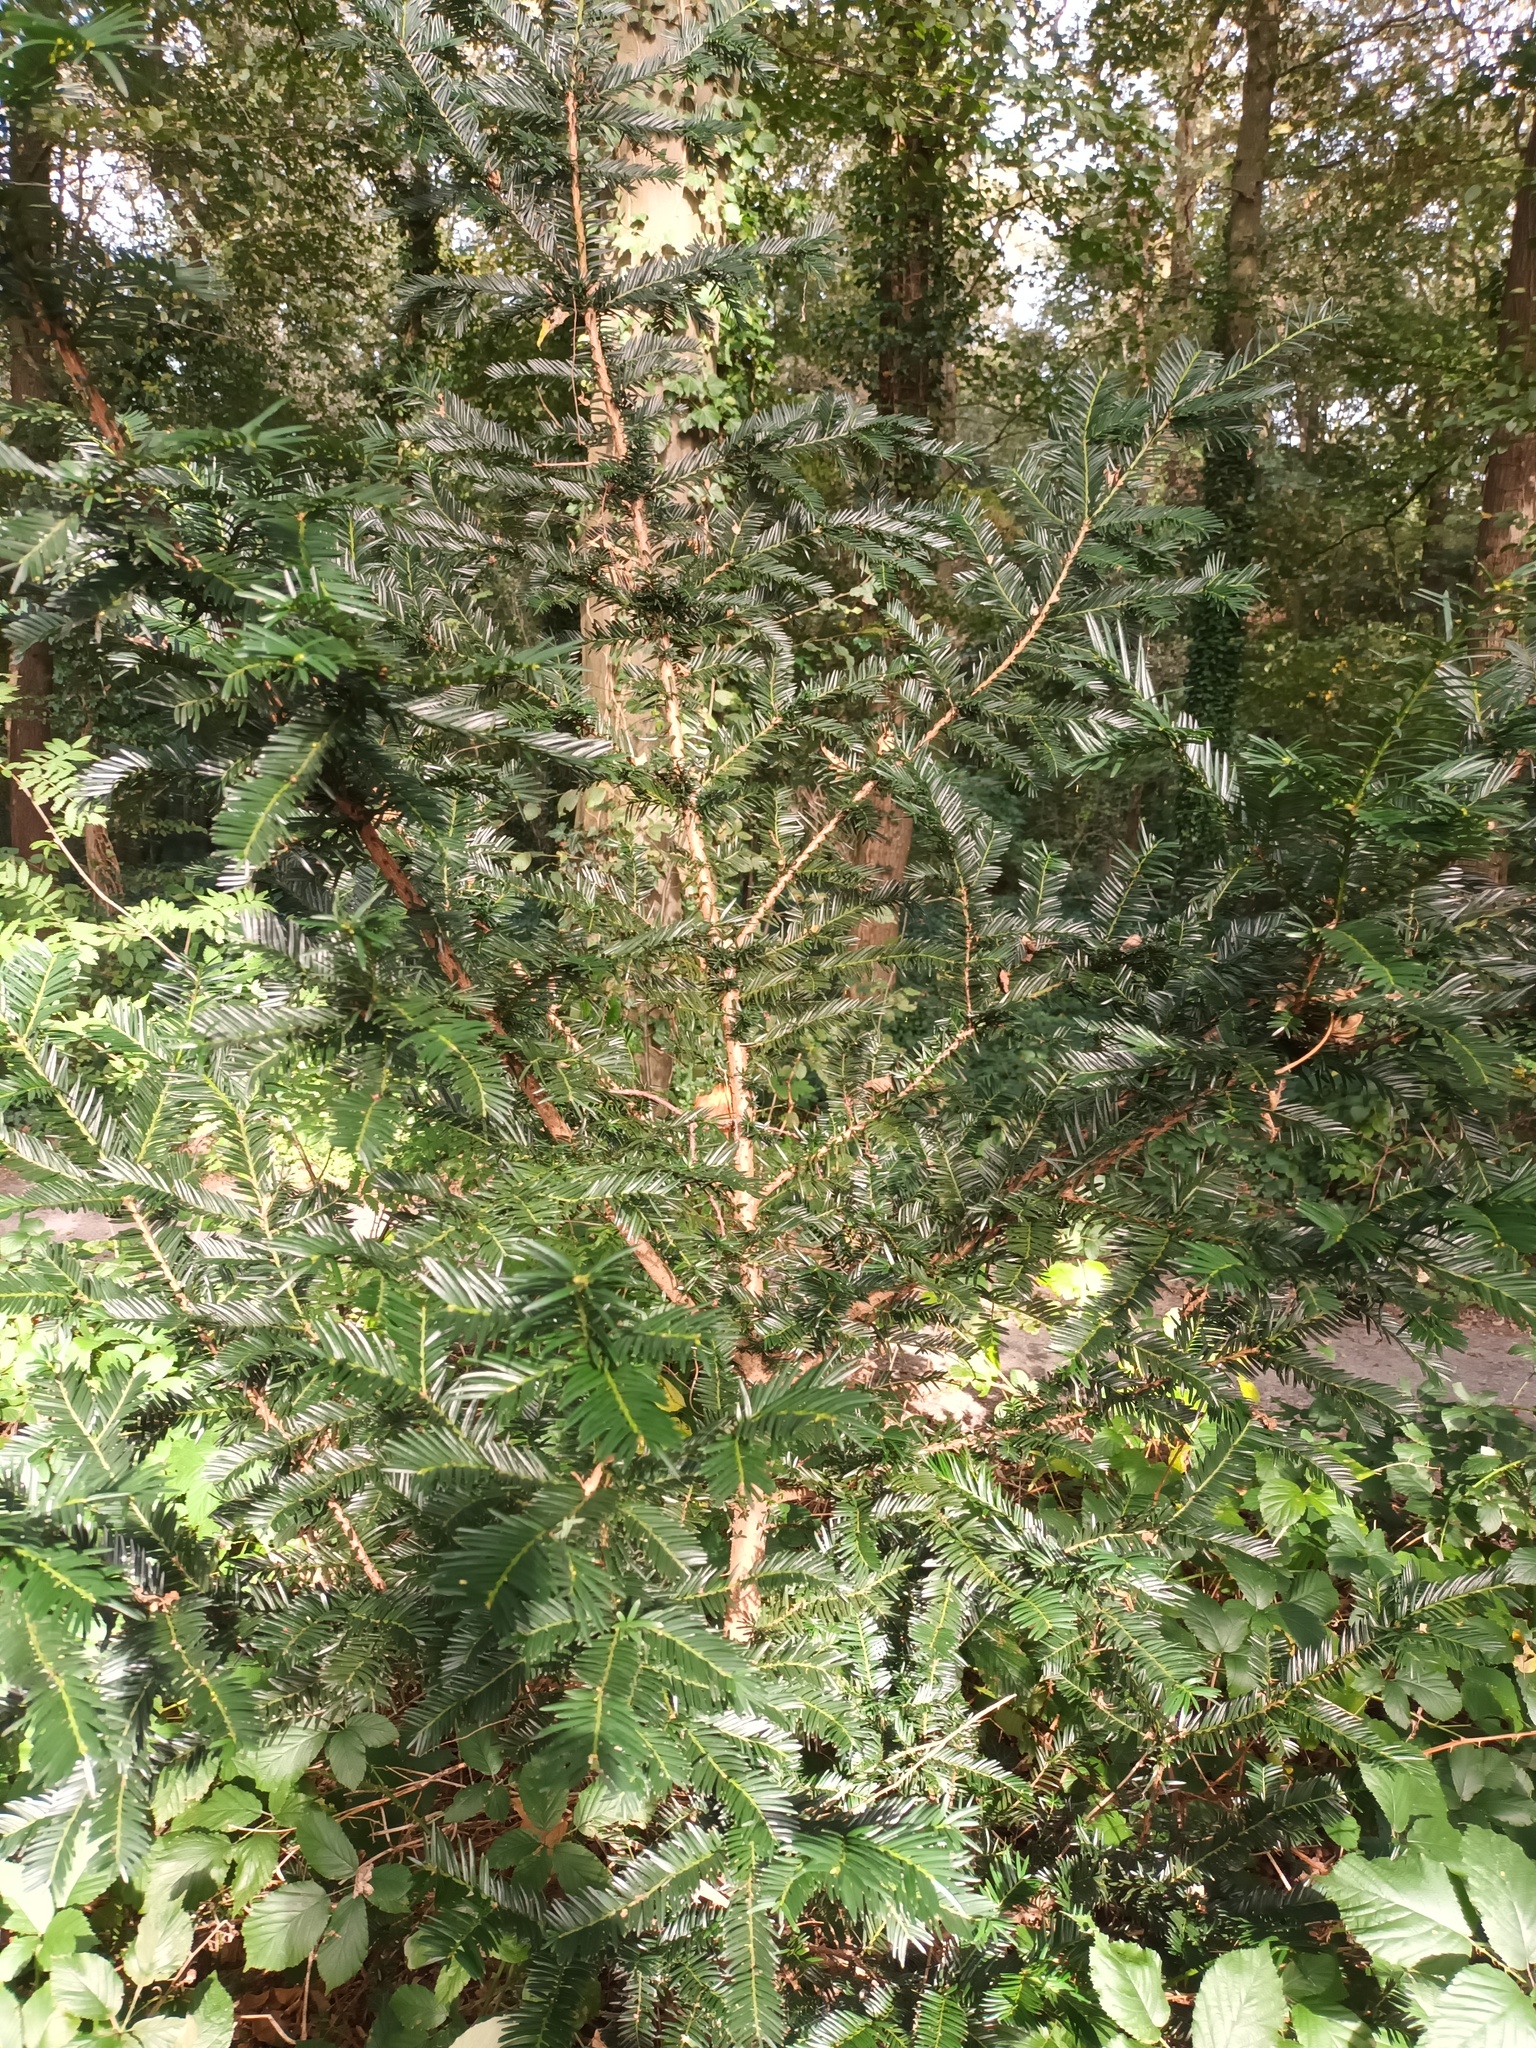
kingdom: Plantae
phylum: Tracheophyta
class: Pinopsida
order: Pinales
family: Taxaceae
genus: Taxus
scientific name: Taxus baccata
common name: Yew
